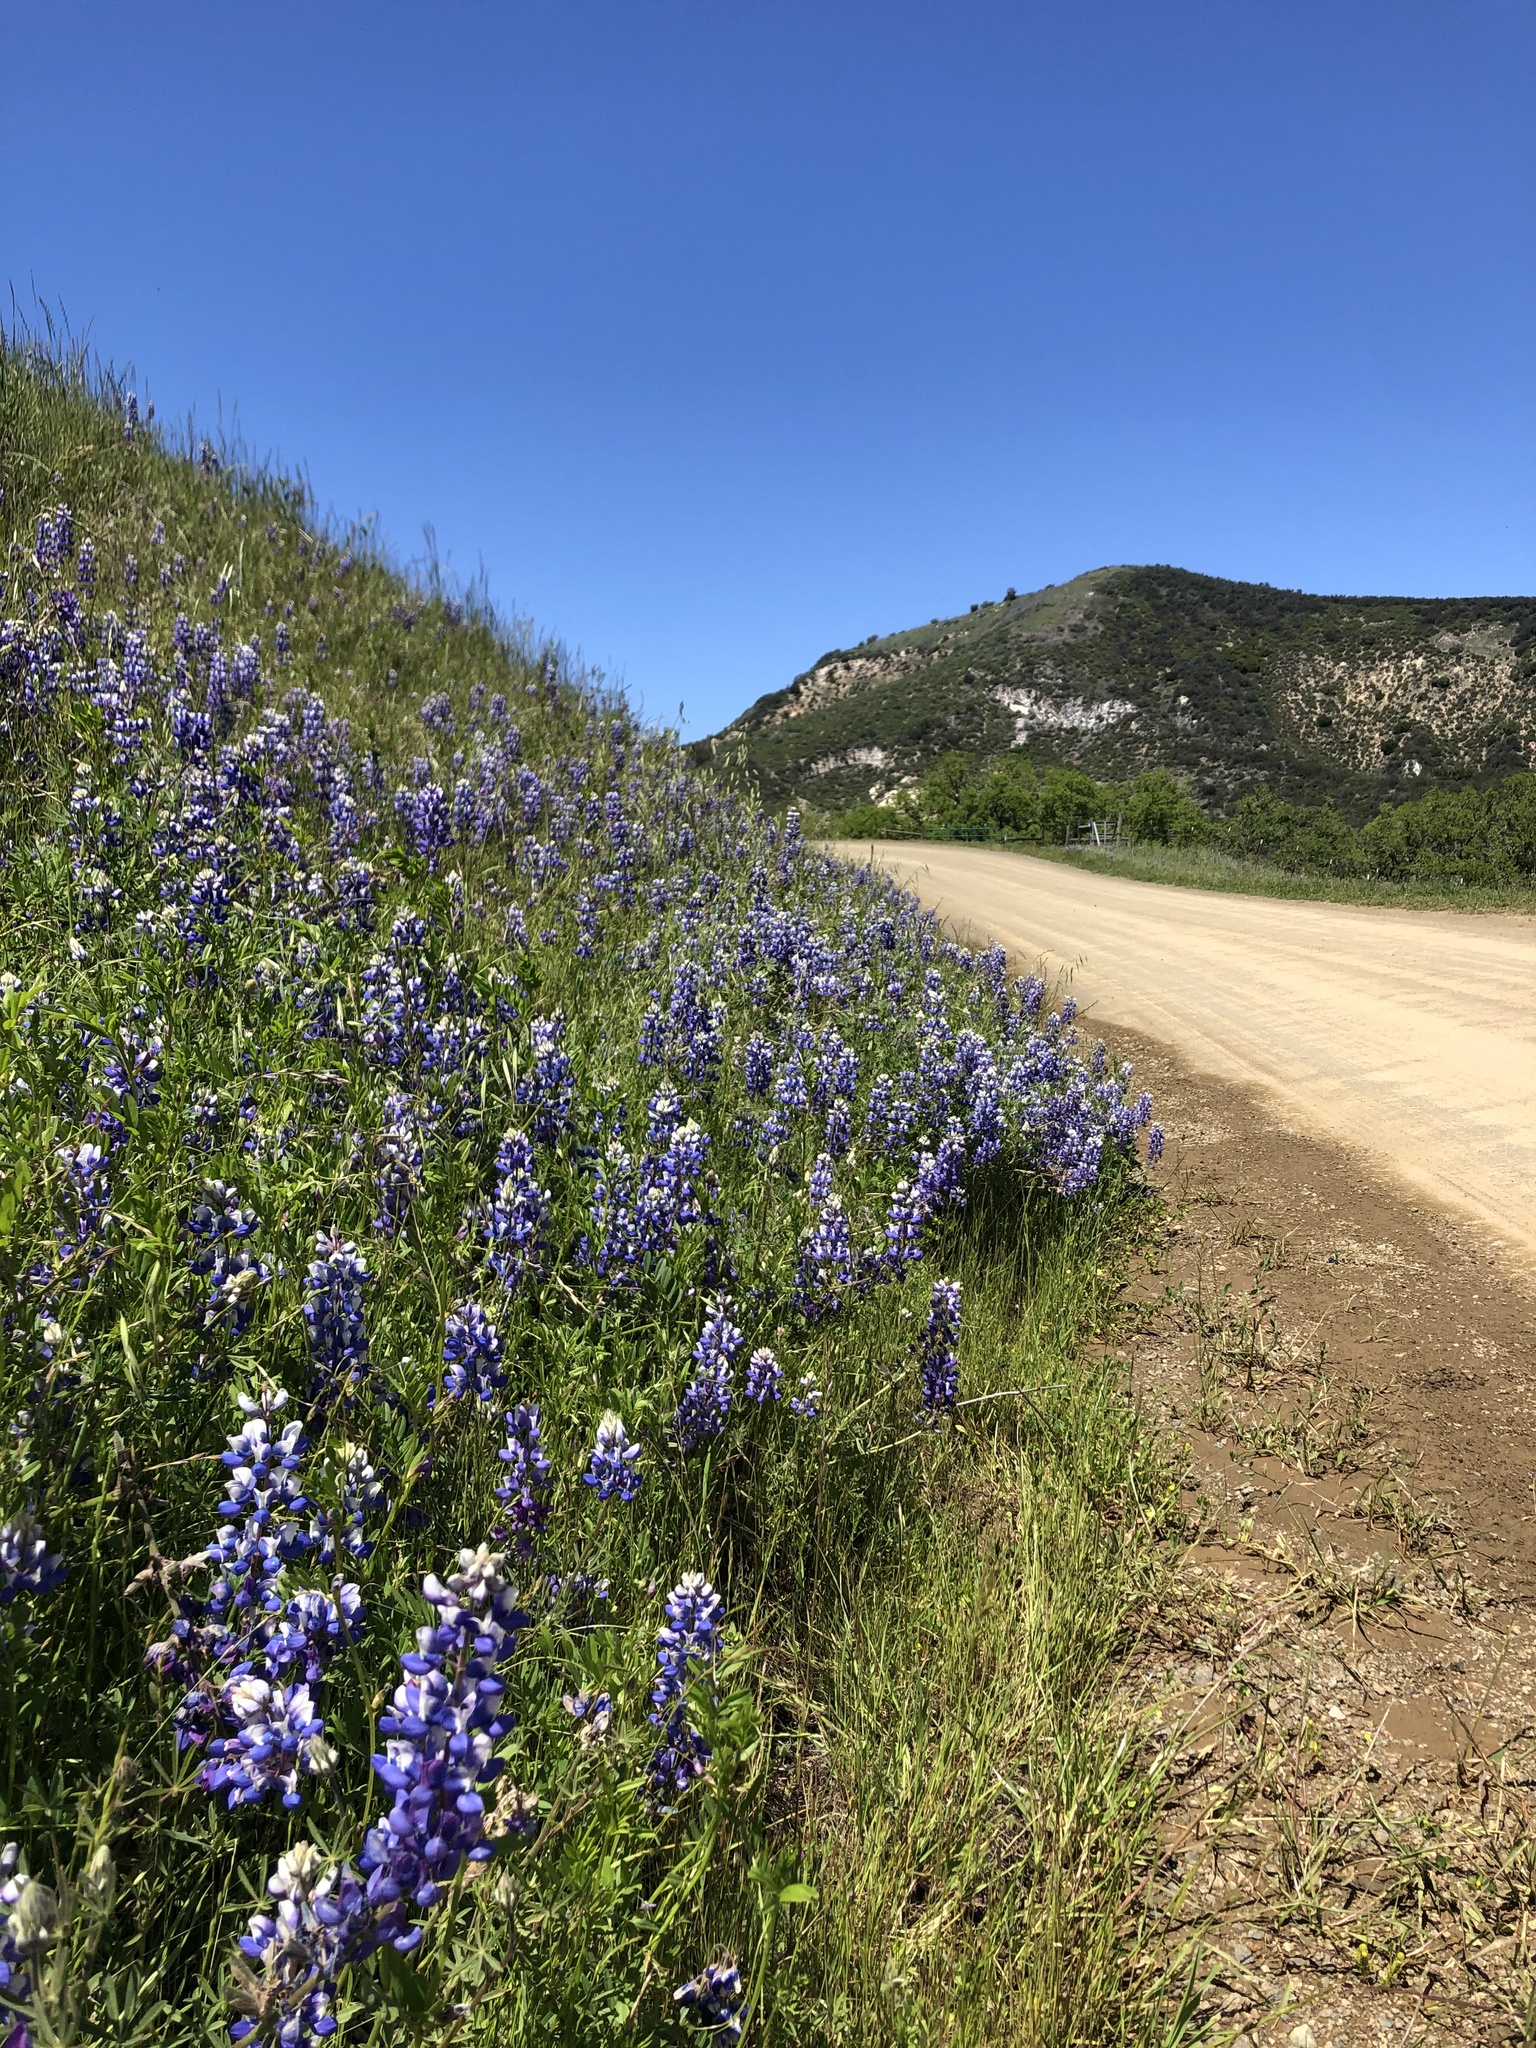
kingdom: Plantae
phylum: Tracheophyta
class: Magnoliopsida
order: Fabales
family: Fabaceae
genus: Lupinus
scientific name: Lupinus nanus
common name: Orean blue lupin
